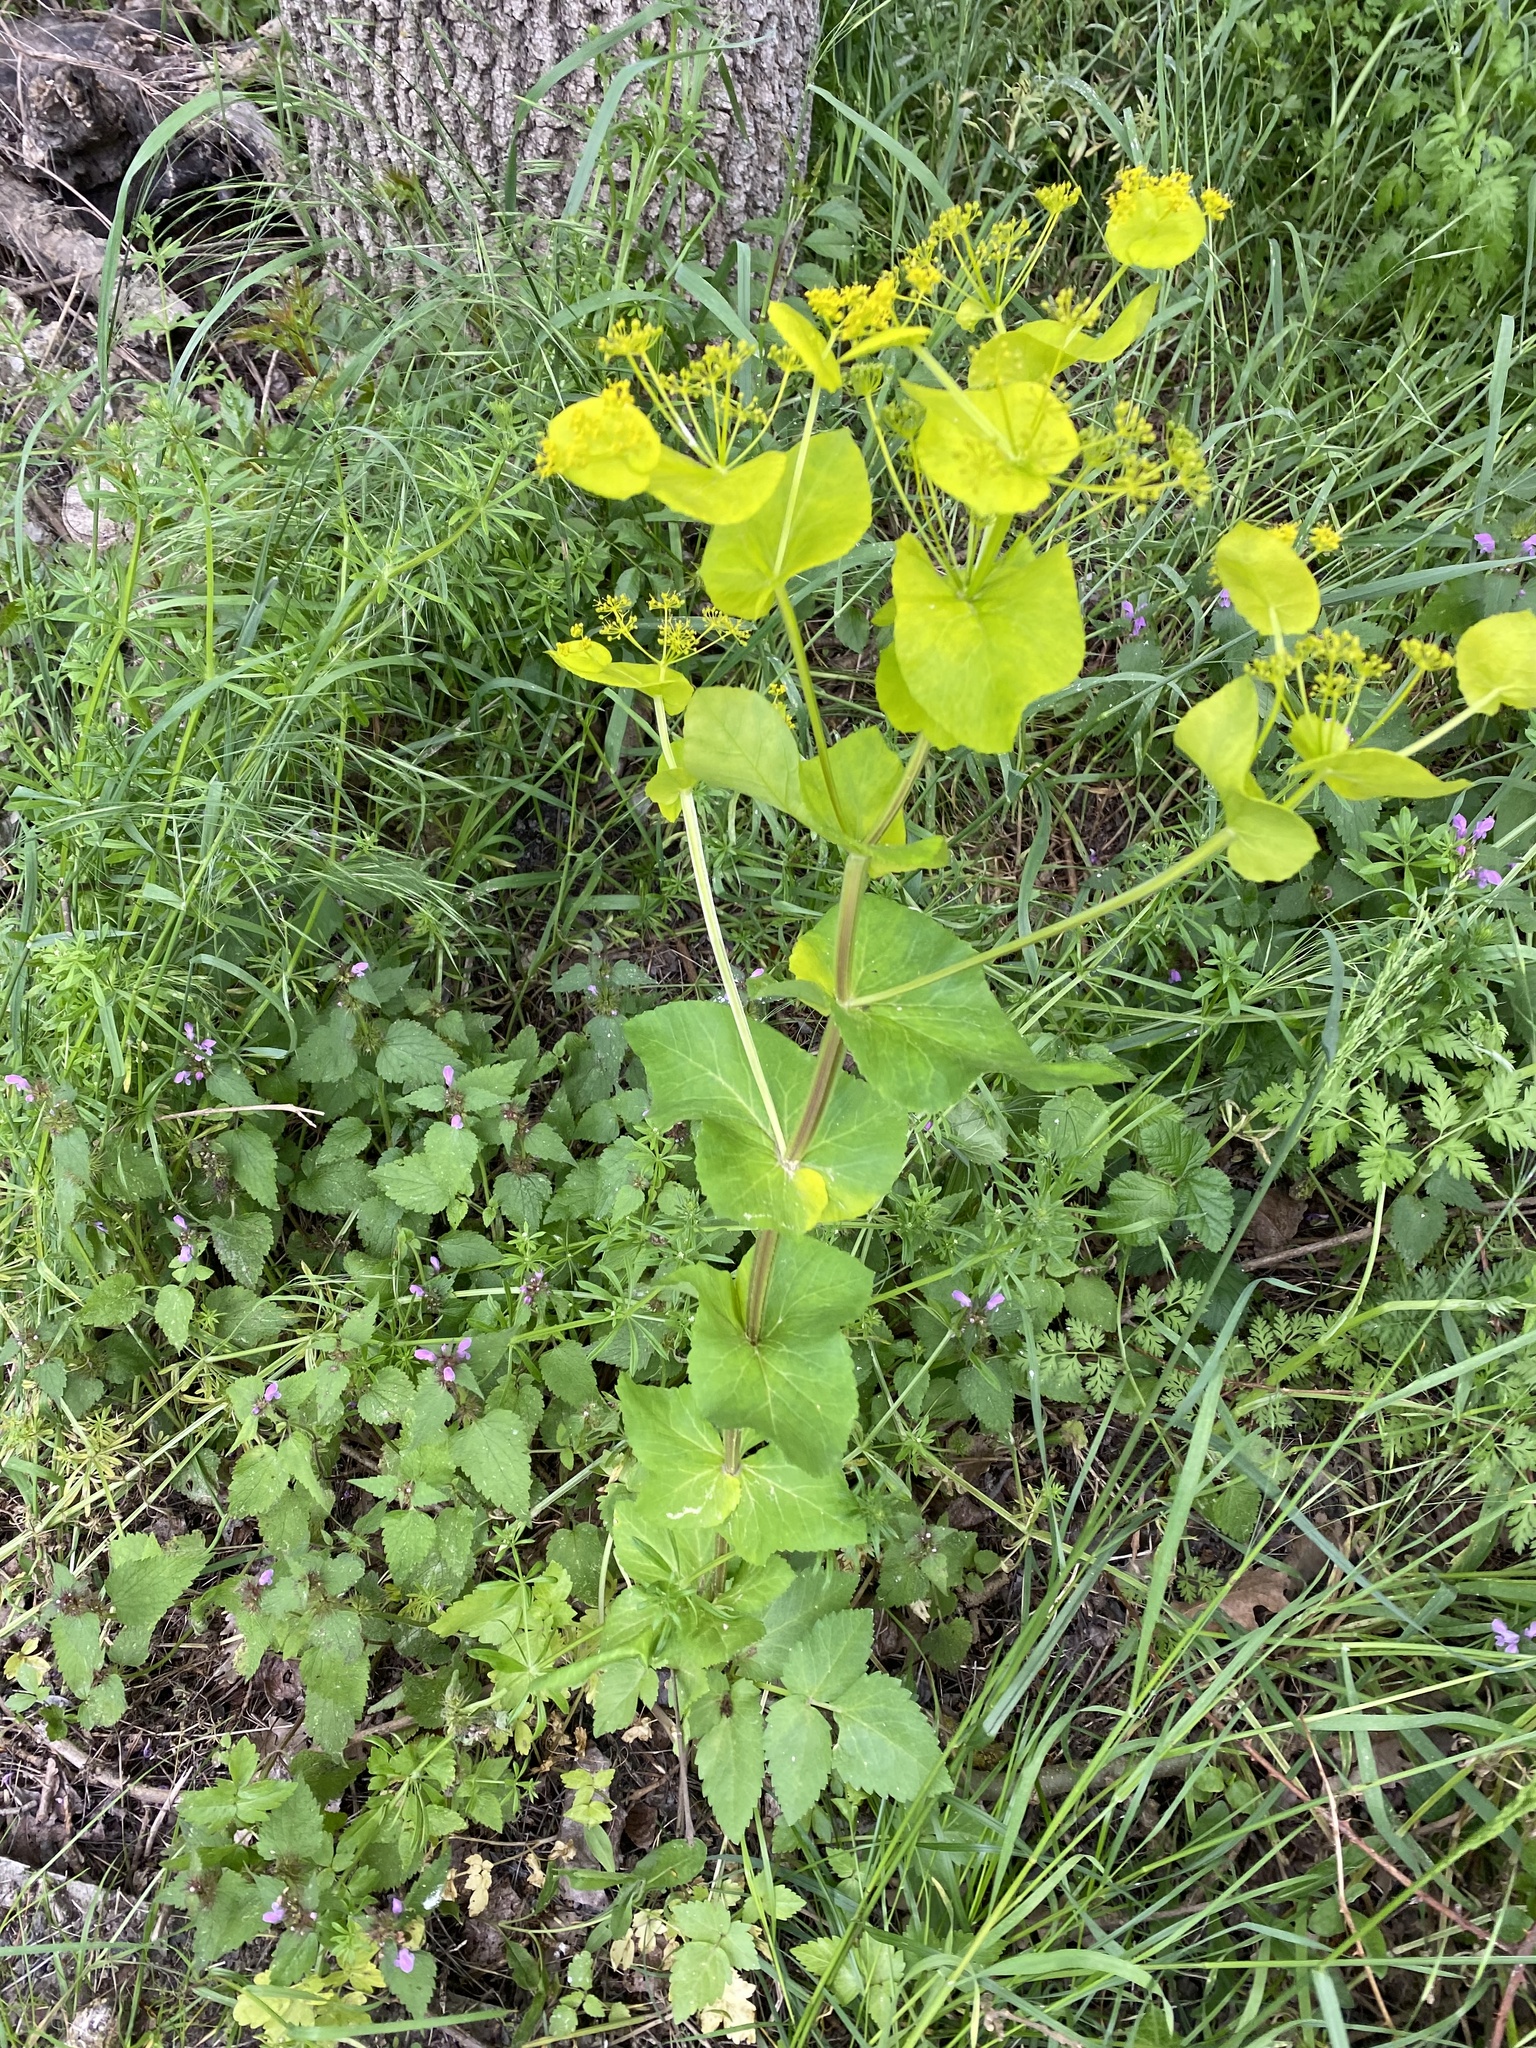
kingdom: Plantae
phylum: Tracheophyta
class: Magnoliopsida
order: Apiales
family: Apiaceae
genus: Smyrnium
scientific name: Smyrnium perfoliatum
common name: Perfoliate alexanders
